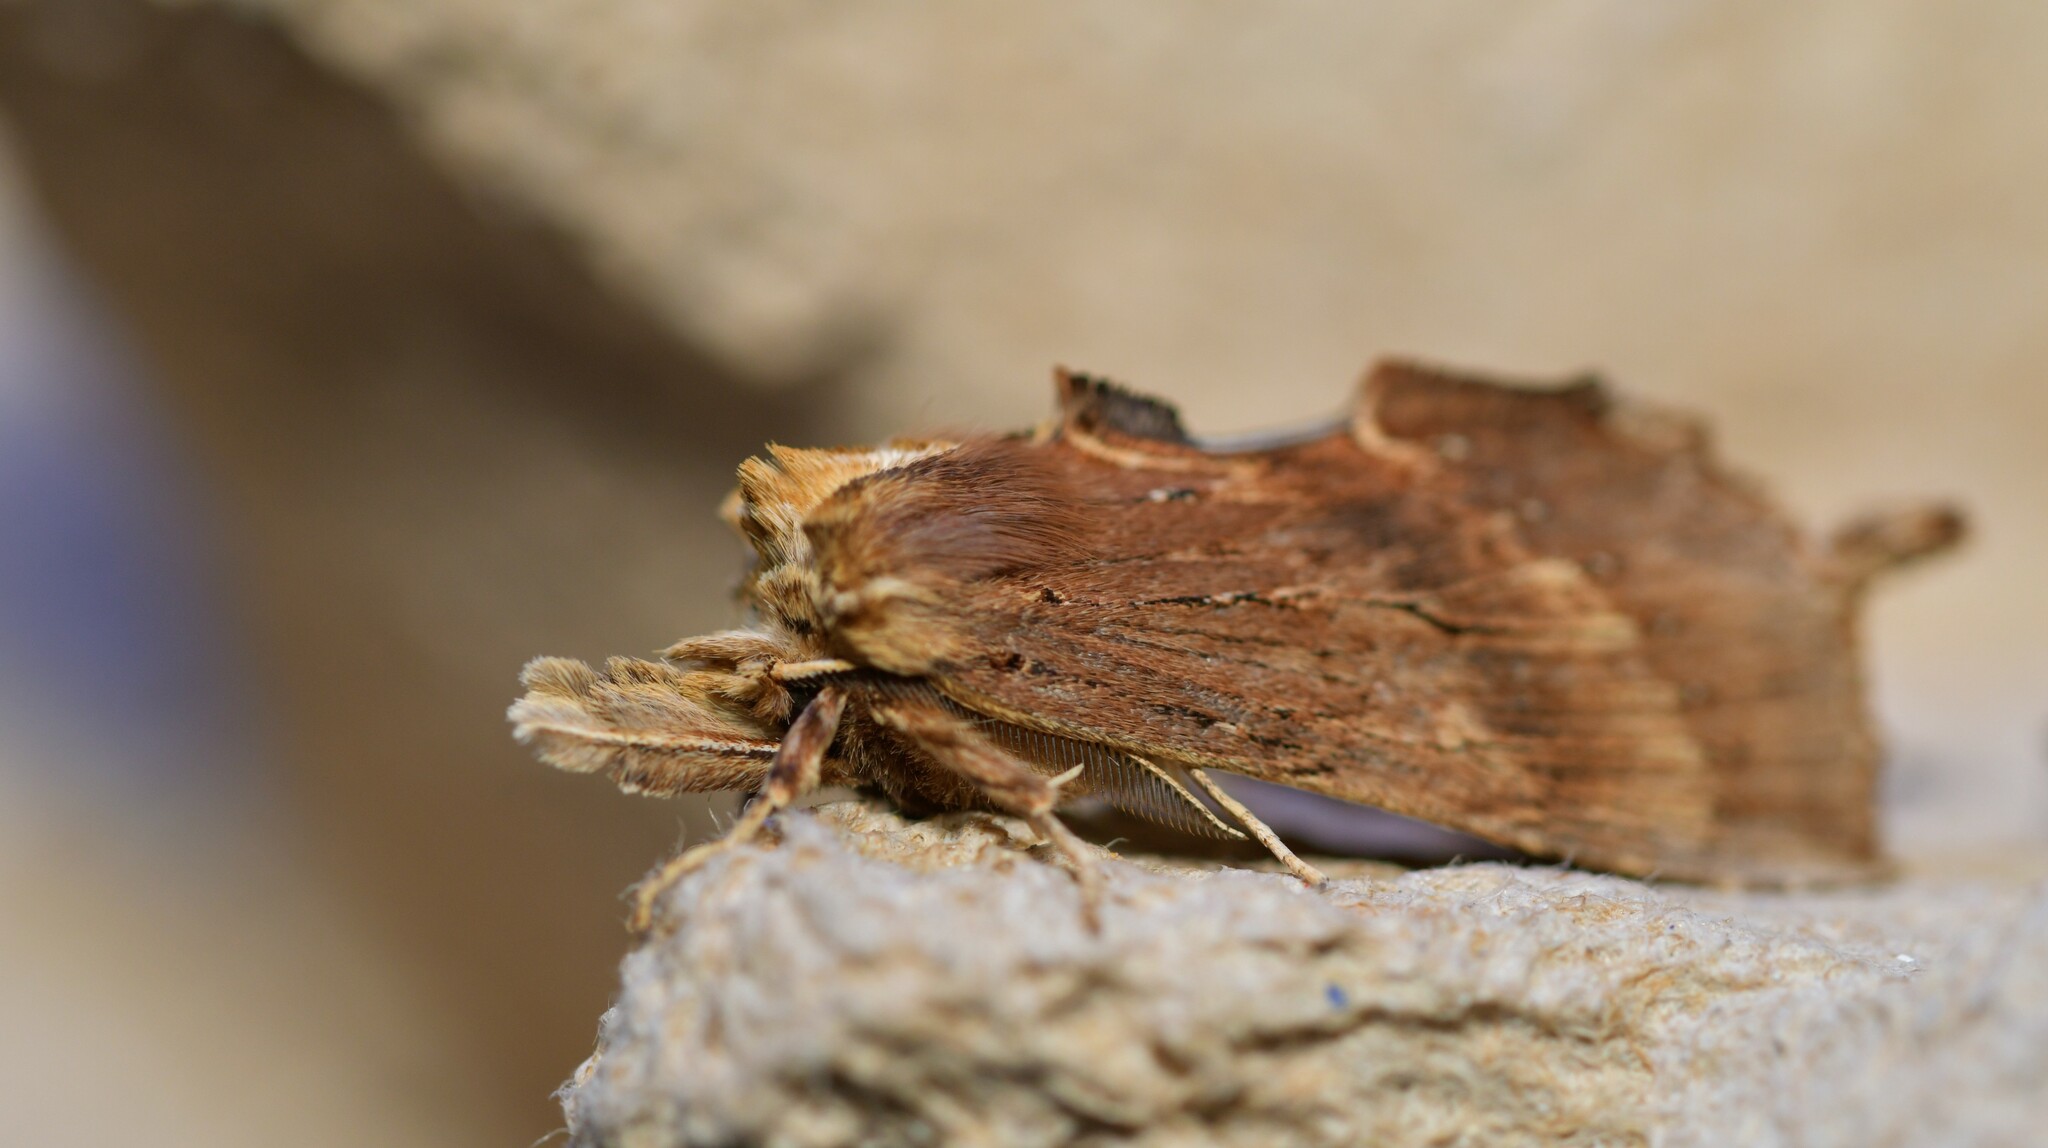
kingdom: Animalia
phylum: Arthropoda
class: Insecta
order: Lepidoptera
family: Notodontidae
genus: Pterostoma
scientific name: Pterostoma palpina
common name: Pale prominent
